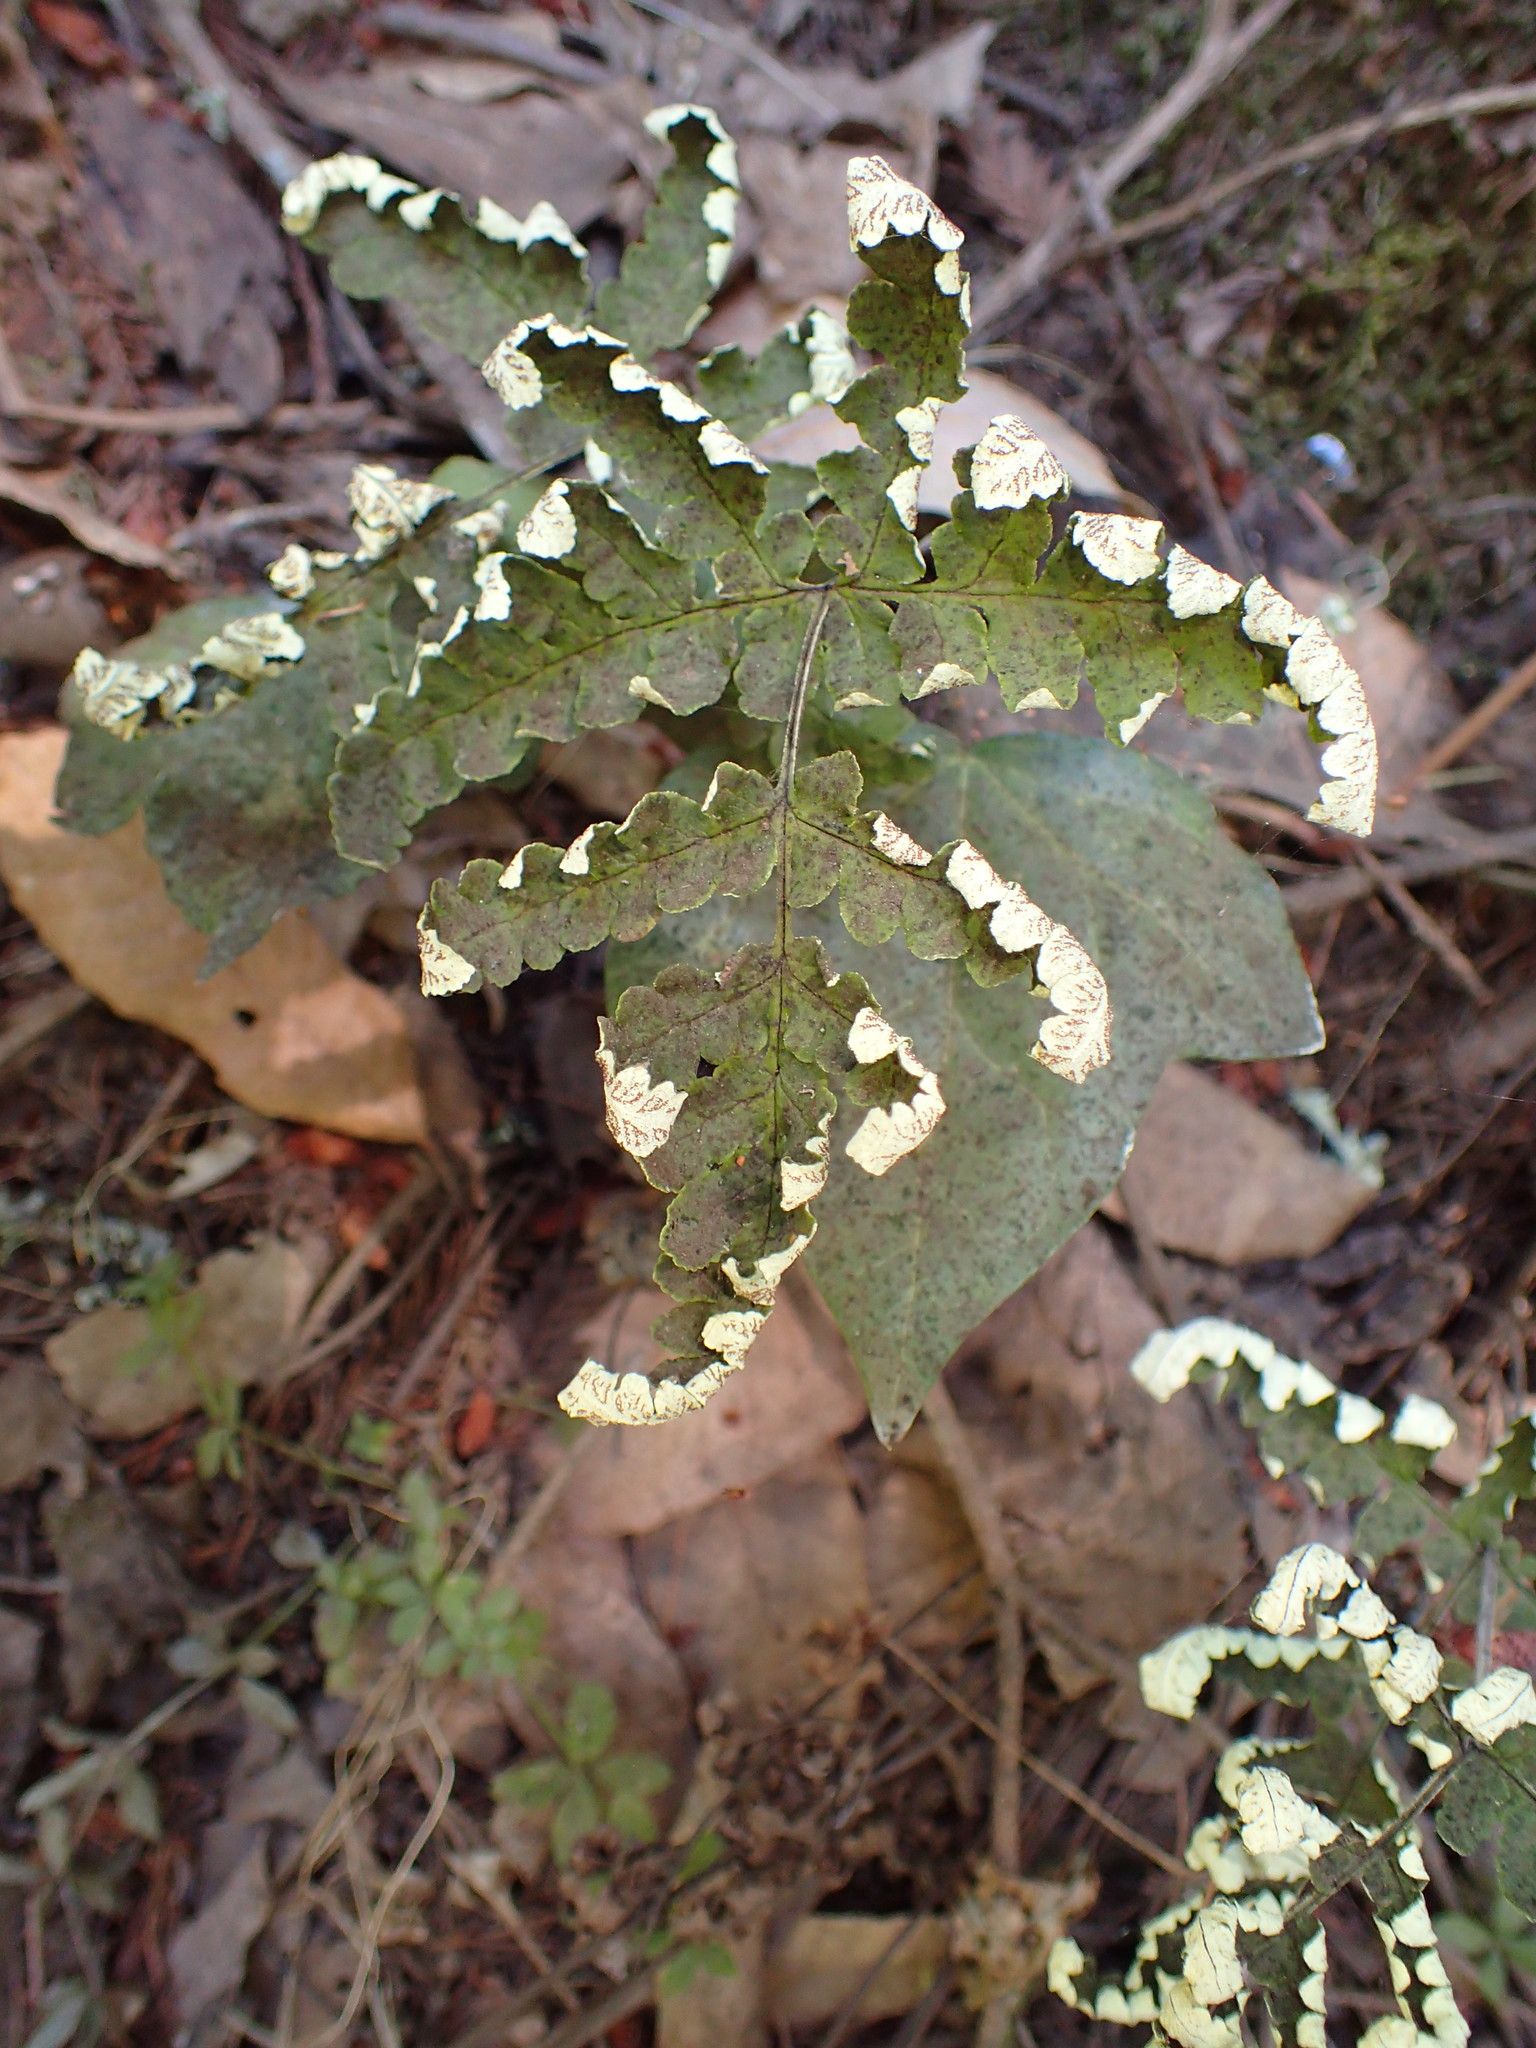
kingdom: Plantae
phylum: Tracheophyta
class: Polypodiopsida
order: Polypodiales
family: Pteridaceae
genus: Pentagramma
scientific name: Pentagramma triangularis
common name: Gold fern
